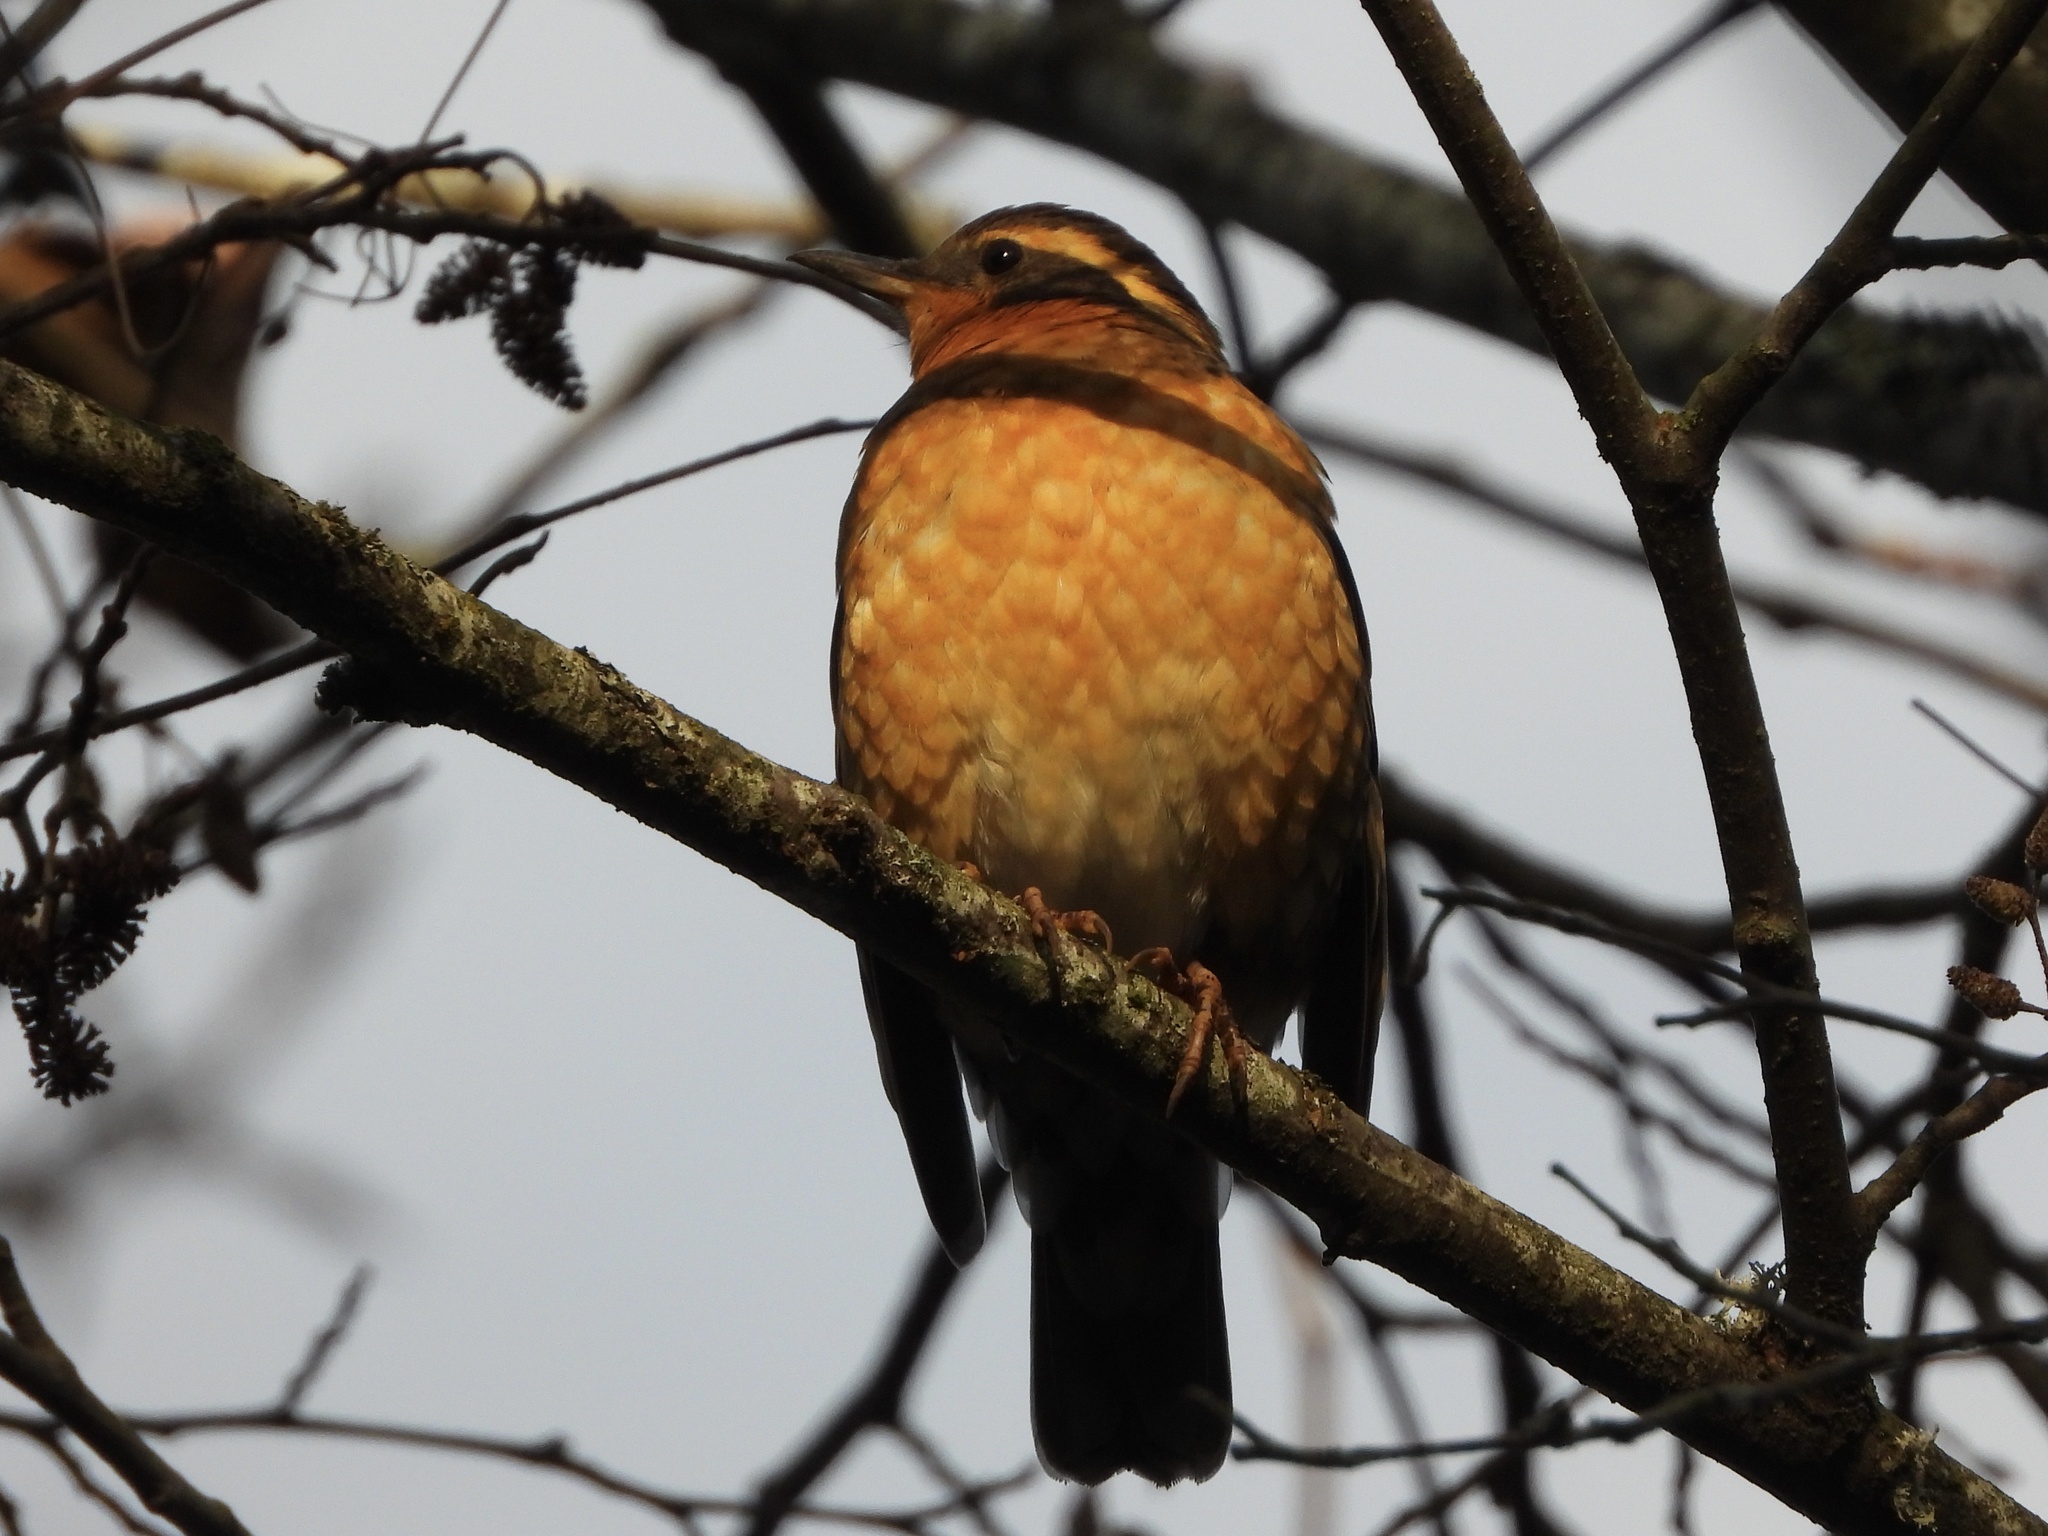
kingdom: Animalia
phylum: Chordata
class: Aves
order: Passeriformes
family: Turdidae
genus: Ixoreus
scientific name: Ixoreus naevius
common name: Varied thrush
